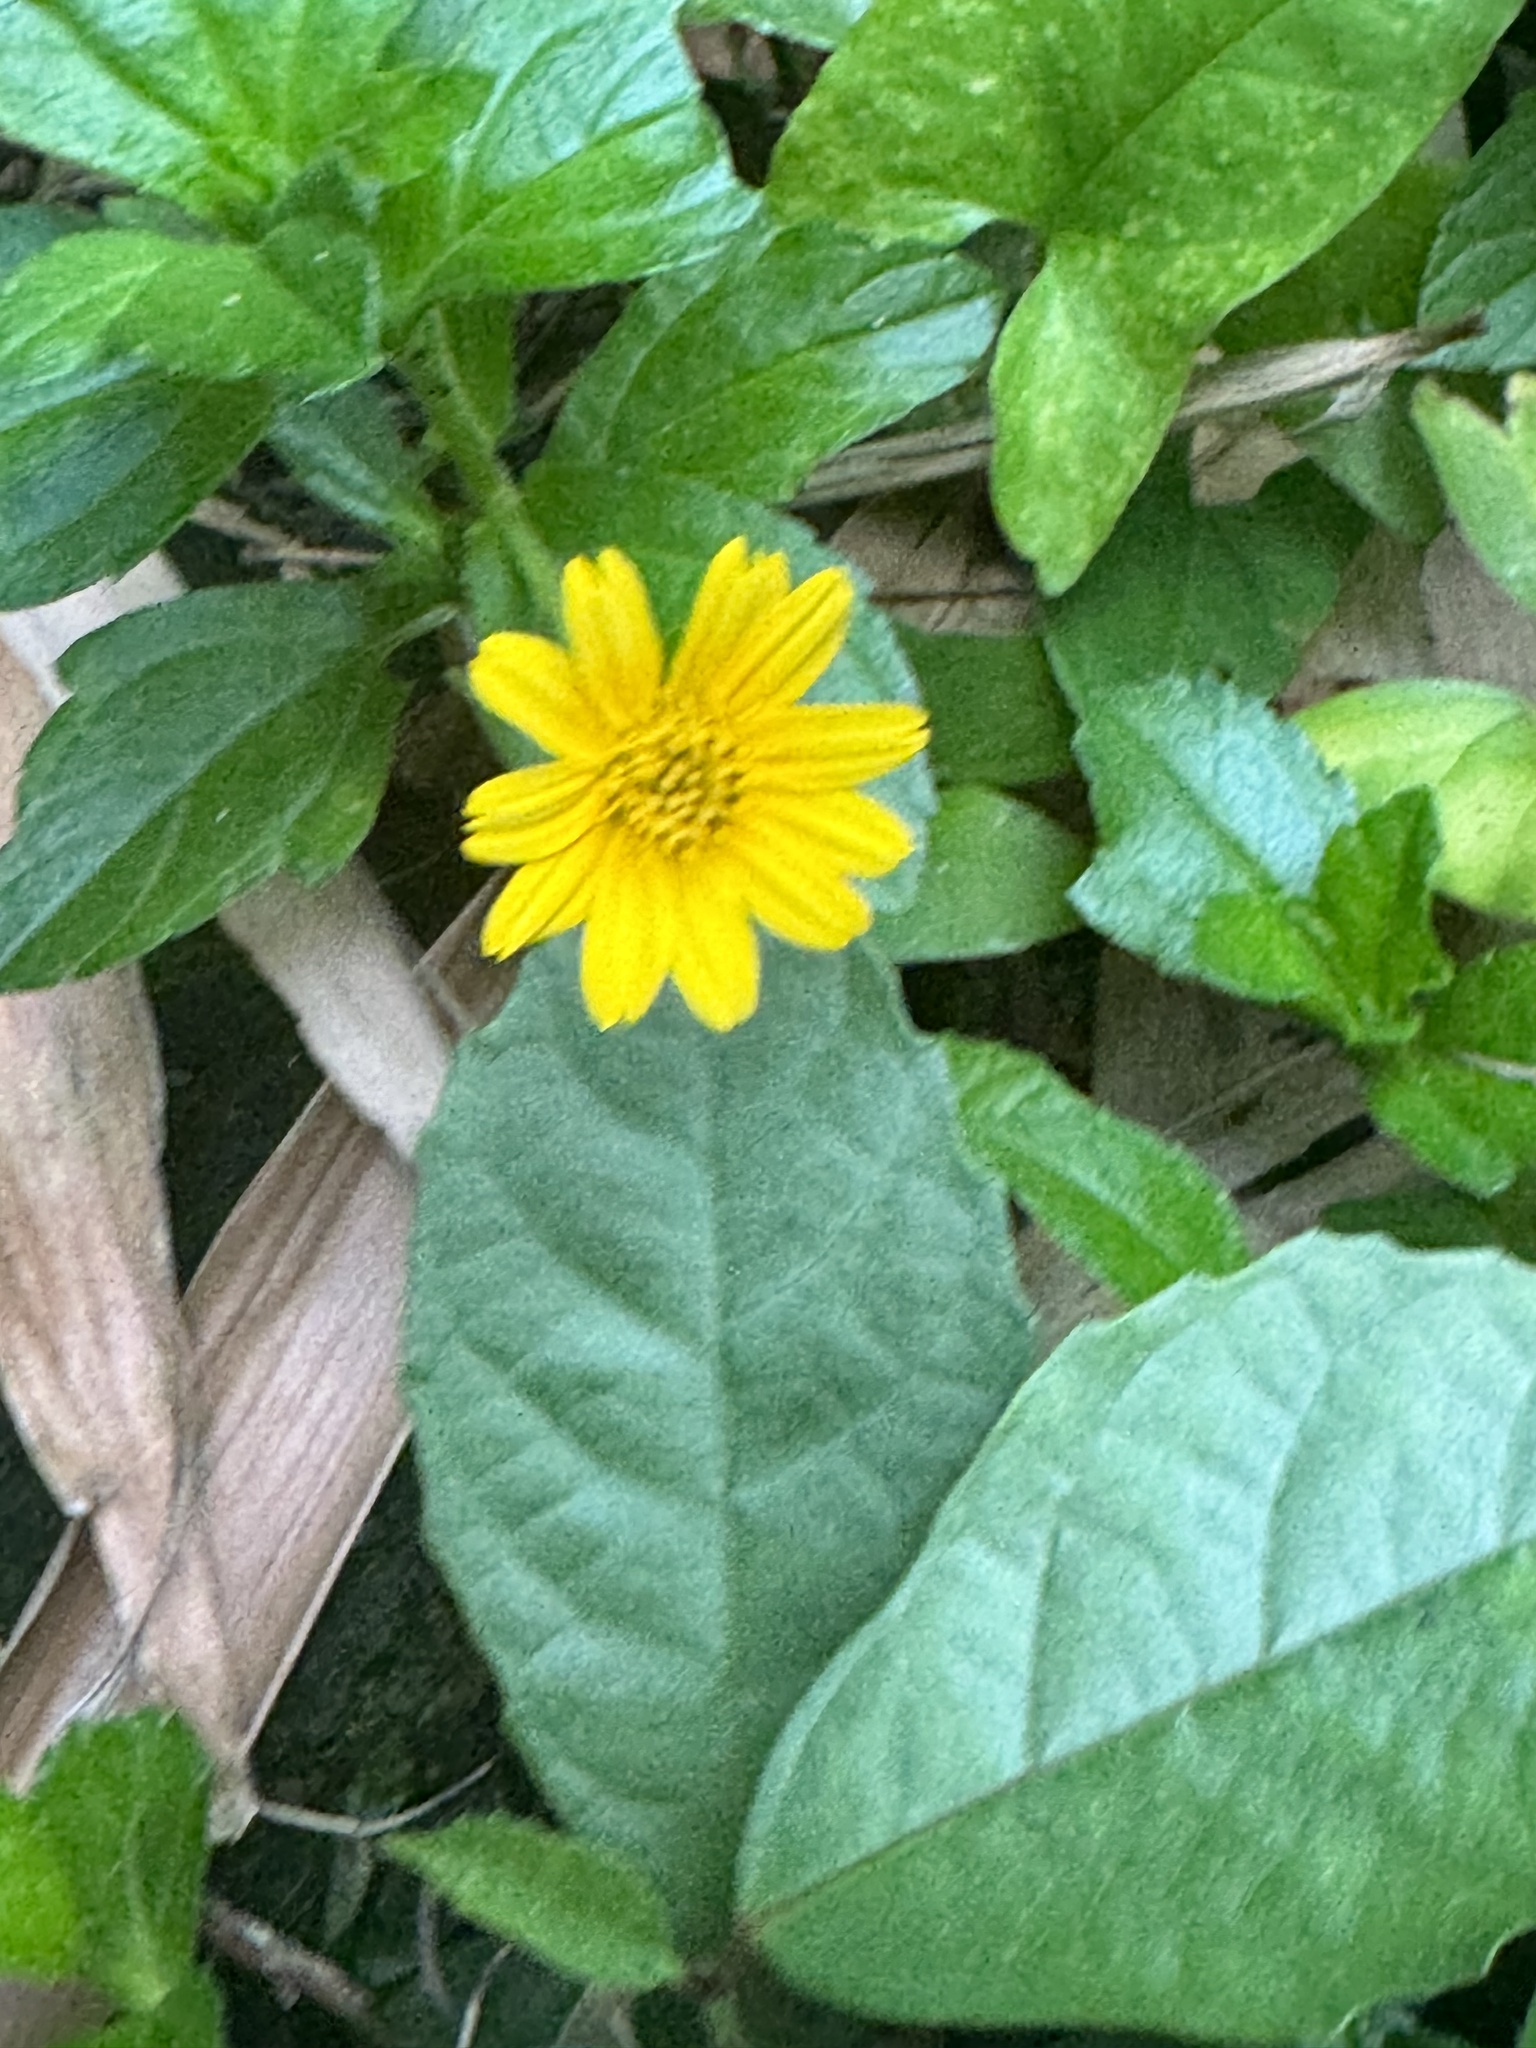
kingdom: Plantae
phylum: Tracheophyta
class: Magnoliopsida
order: Asterales
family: Asteraceae
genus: Sphagneticola
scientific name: Sphagneticola trilobata
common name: Bay biscayne creeping-oxeye
